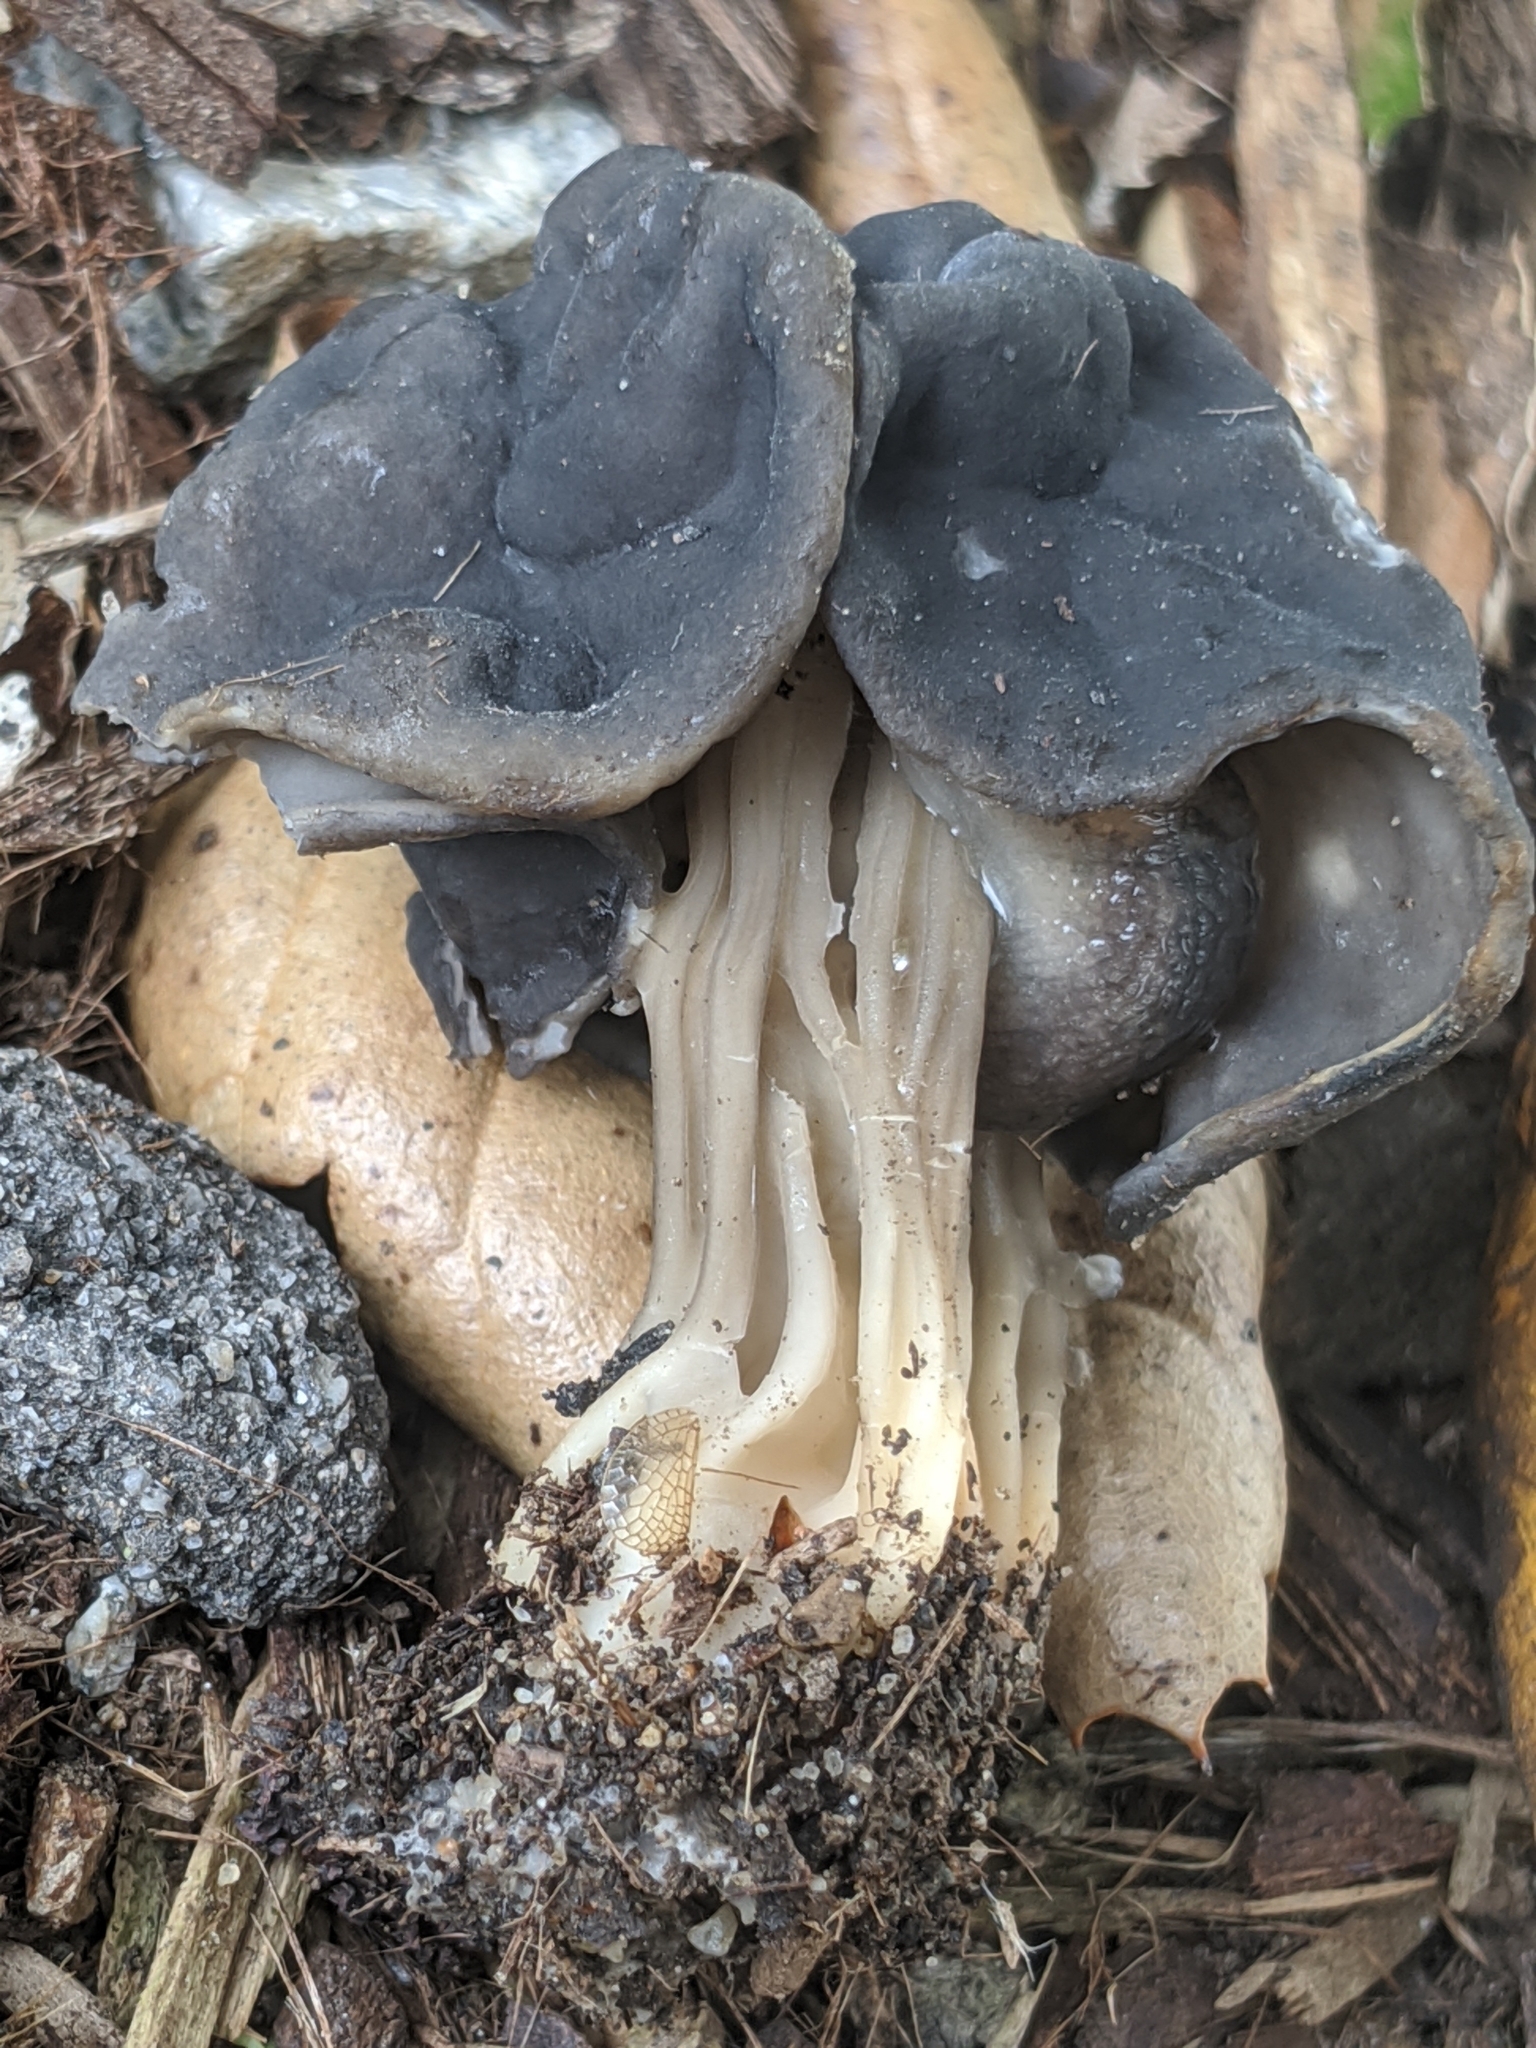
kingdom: Fungi
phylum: Ascomycota
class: Pezizomycetes
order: Pezizales
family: Helvellaceae
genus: Helvella
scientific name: Helvella dryophila
